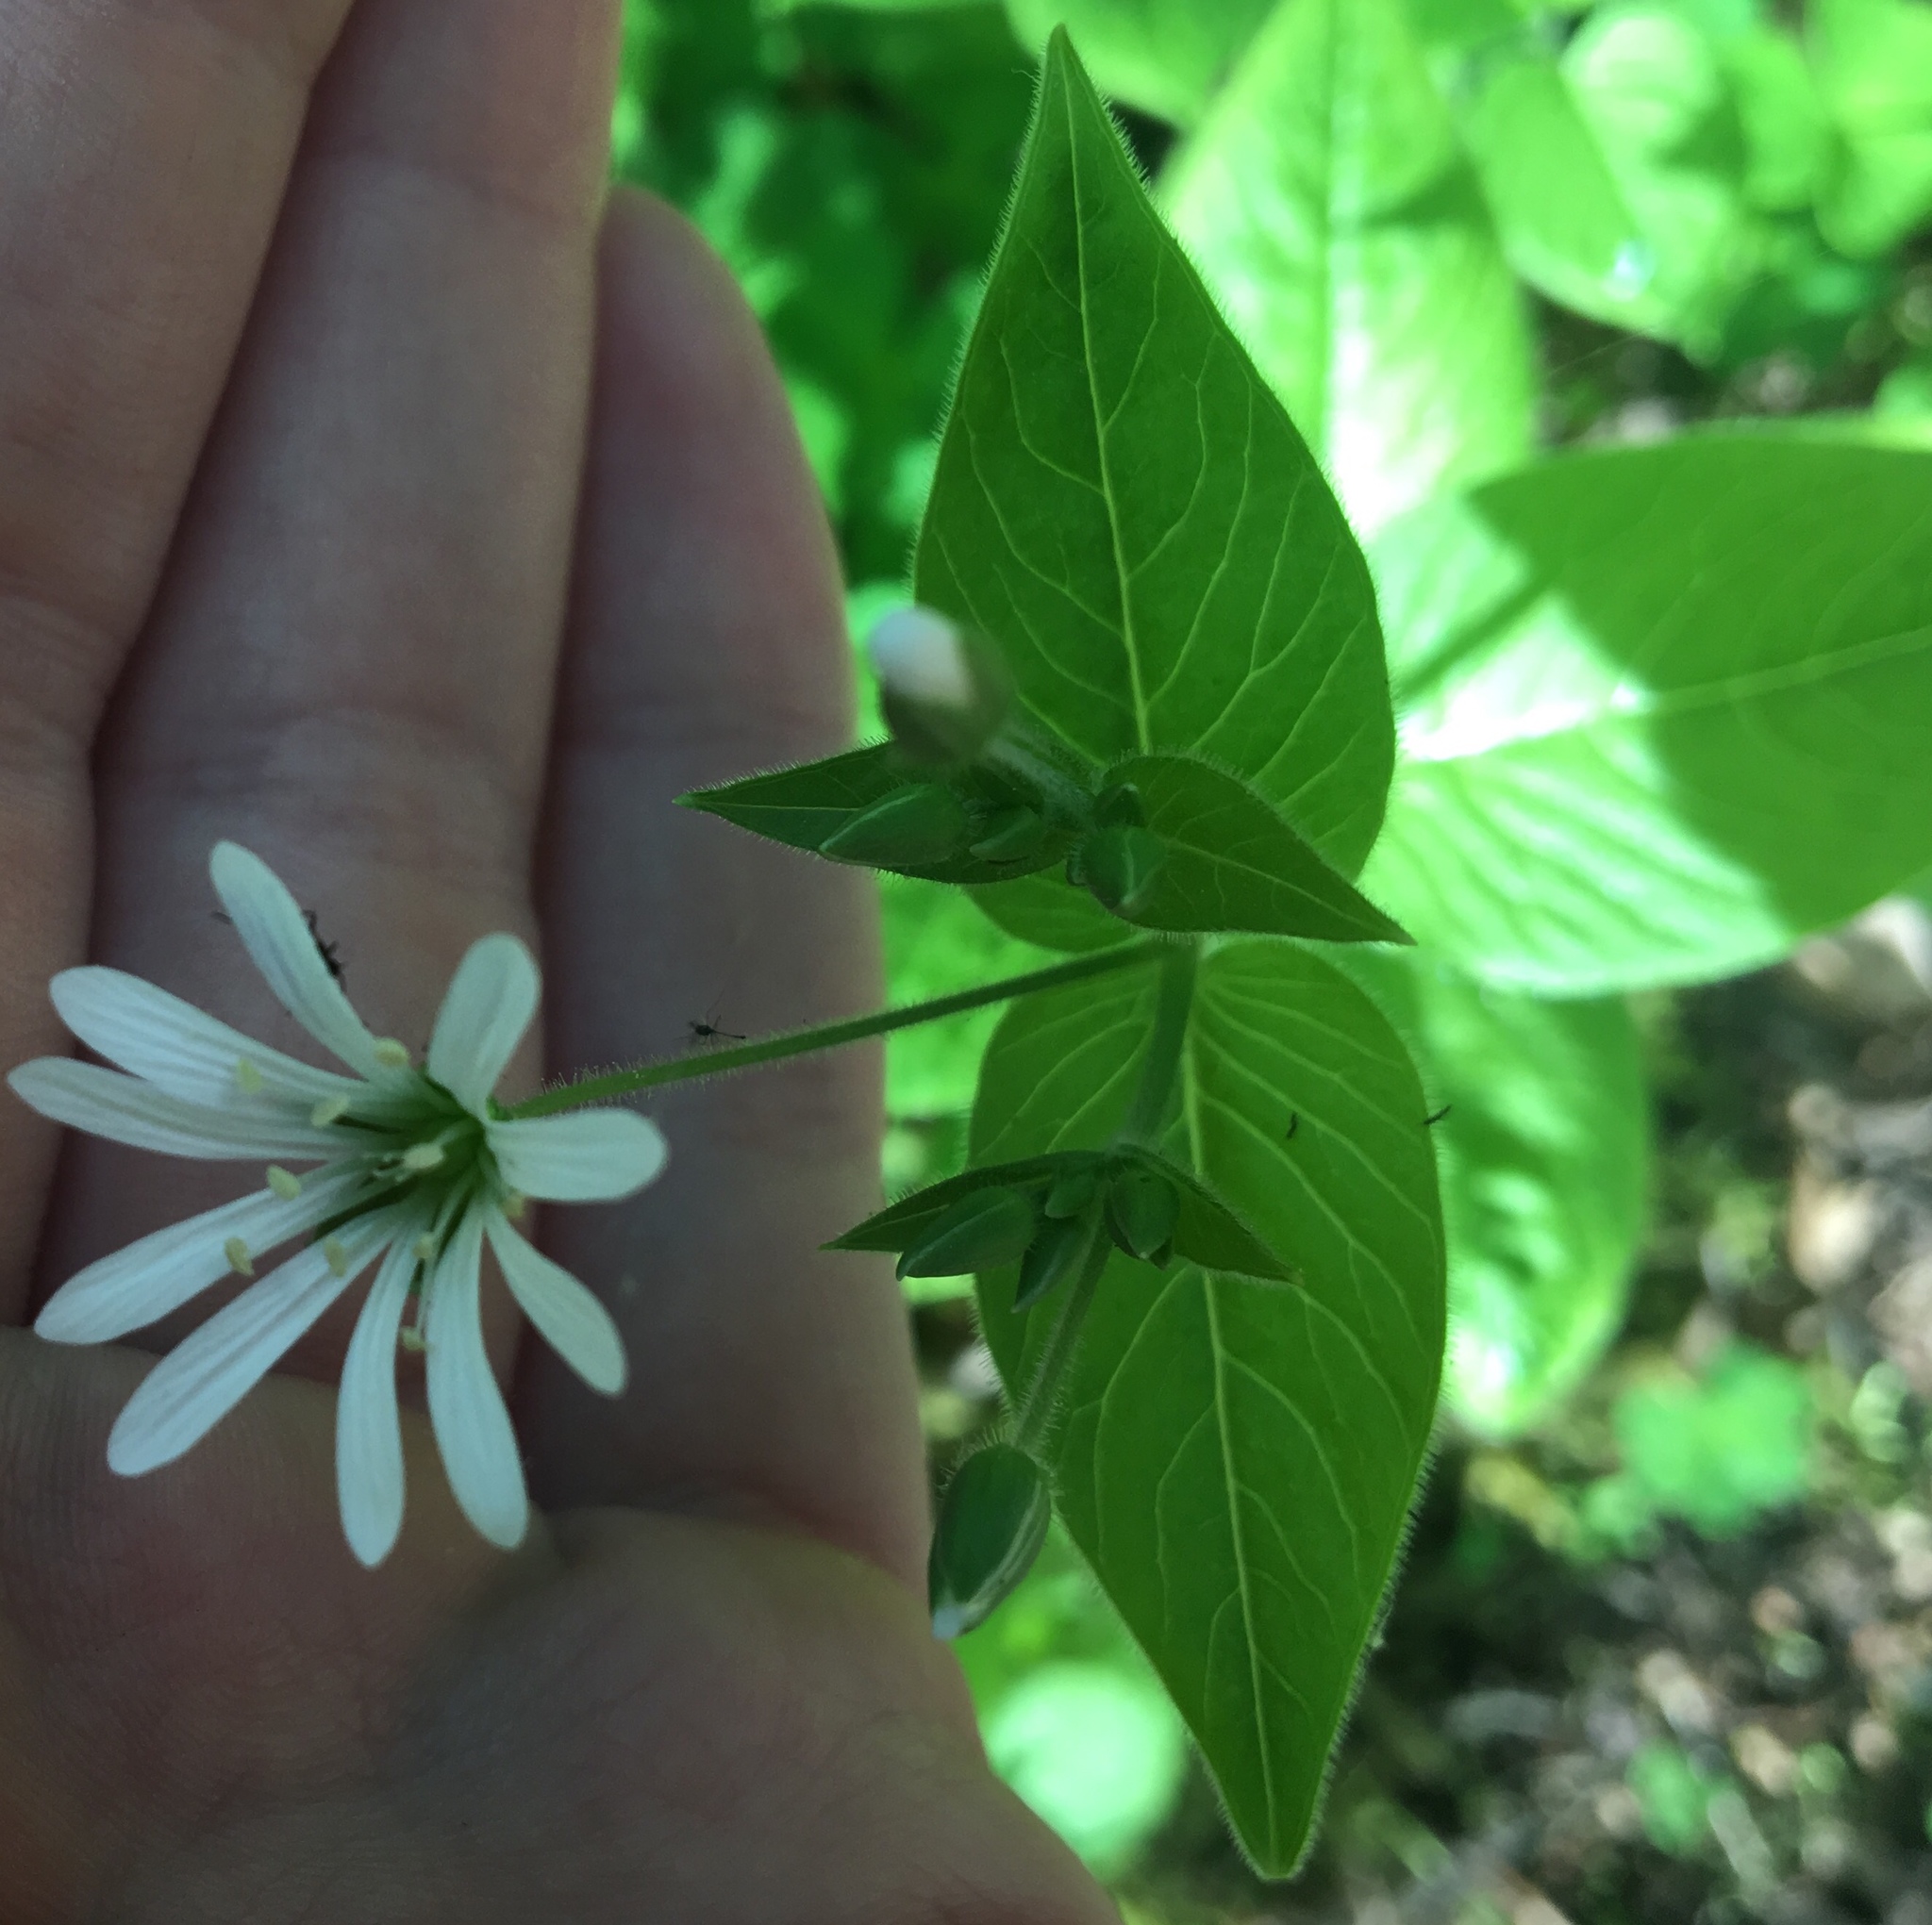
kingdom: Plantae
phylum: Tracheophyta
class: Magnoliopsida
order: Caryophyllales
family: Caryophyllaceae
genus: Stellaria
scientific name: Stellaria nemorum
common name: Wood stitchwort
